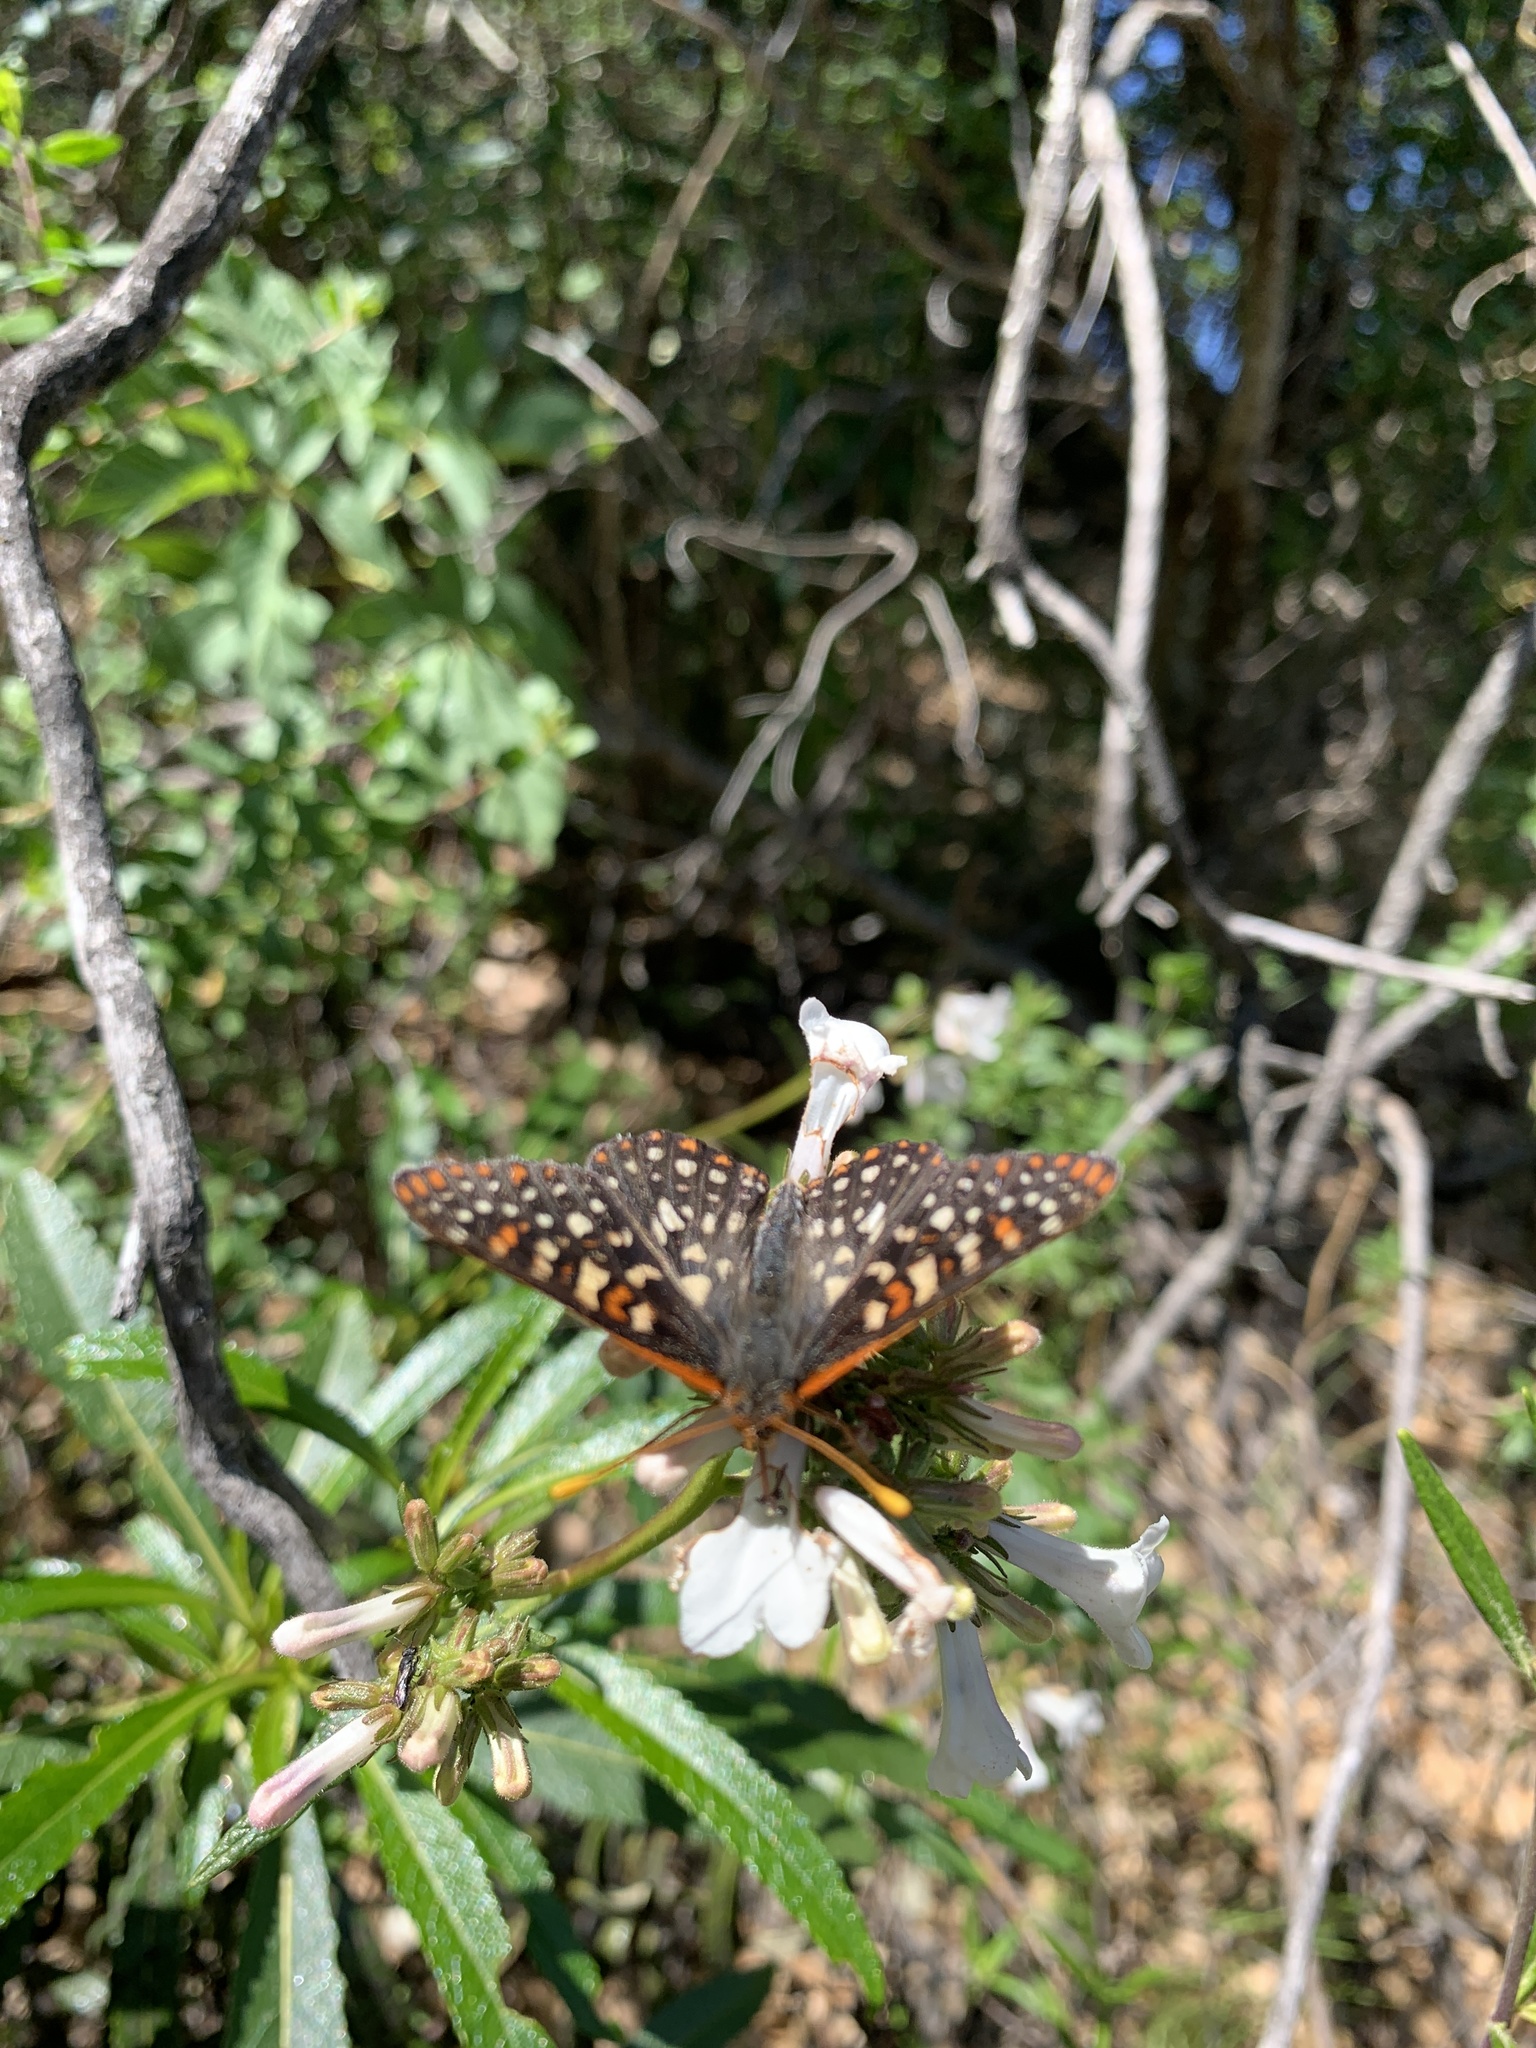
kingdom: Animalia
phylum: Arthropoda
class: Insecta
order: Lepidoptera
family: Nymphalidae
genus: Occidryas
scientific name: Occidryas chalcedona
